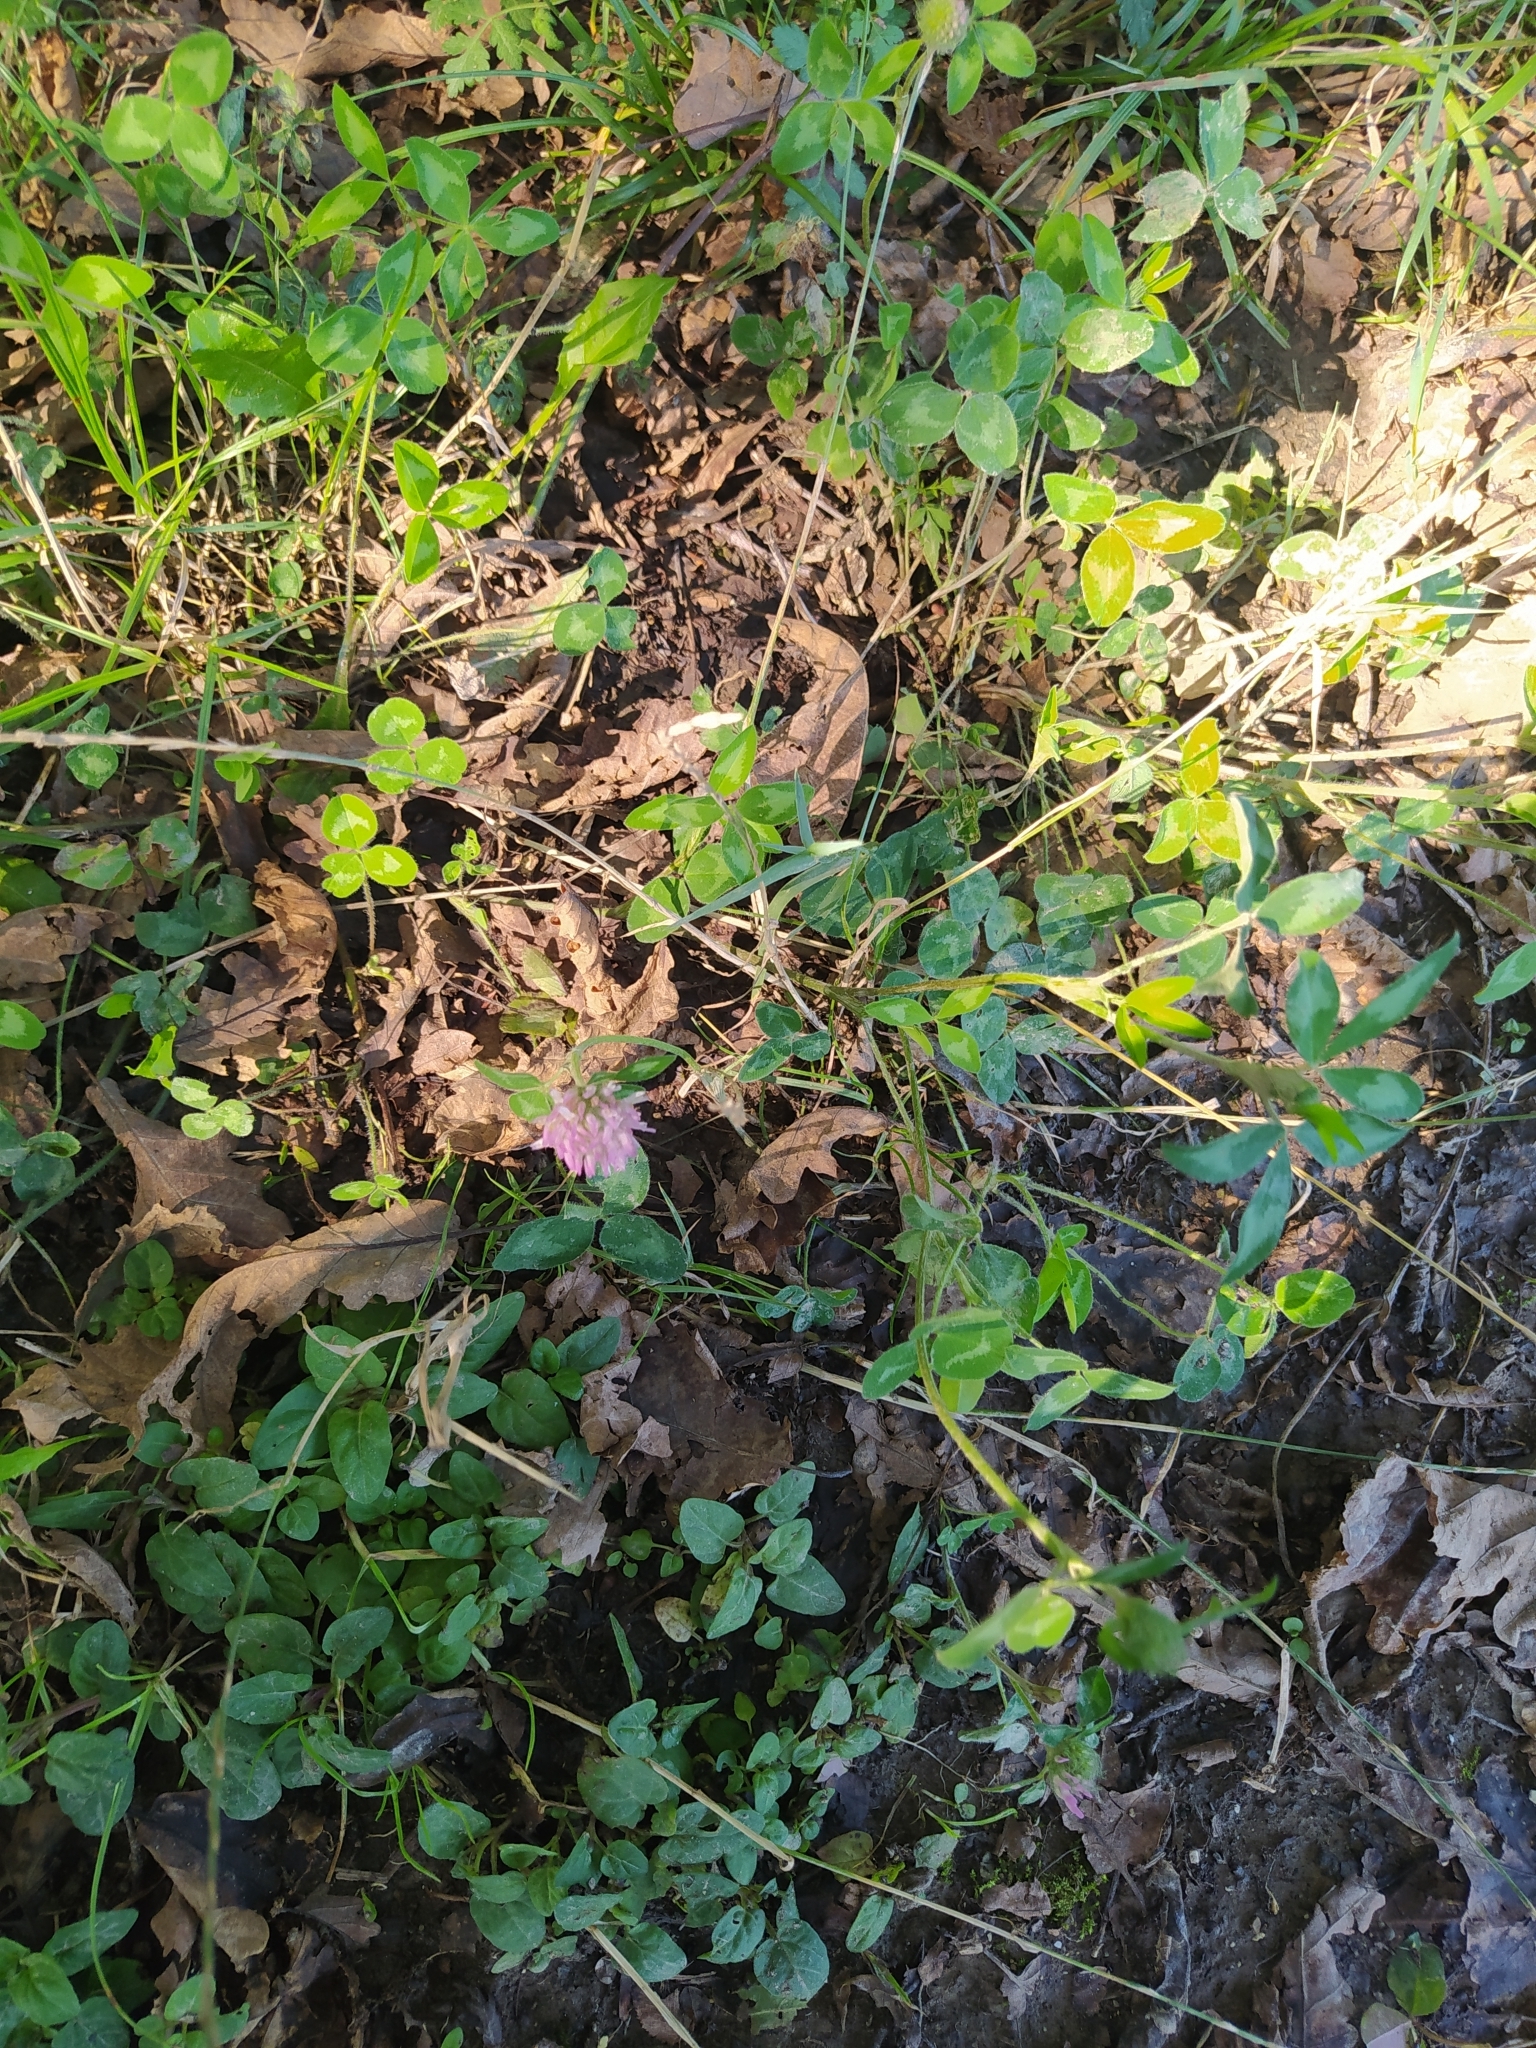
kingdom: Plantae
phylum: Tracheophyta
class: Magnoliopsida
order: Fabales
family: Fabaceae
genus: Trifolium
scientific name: Trifolium pratense
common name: Red clover
